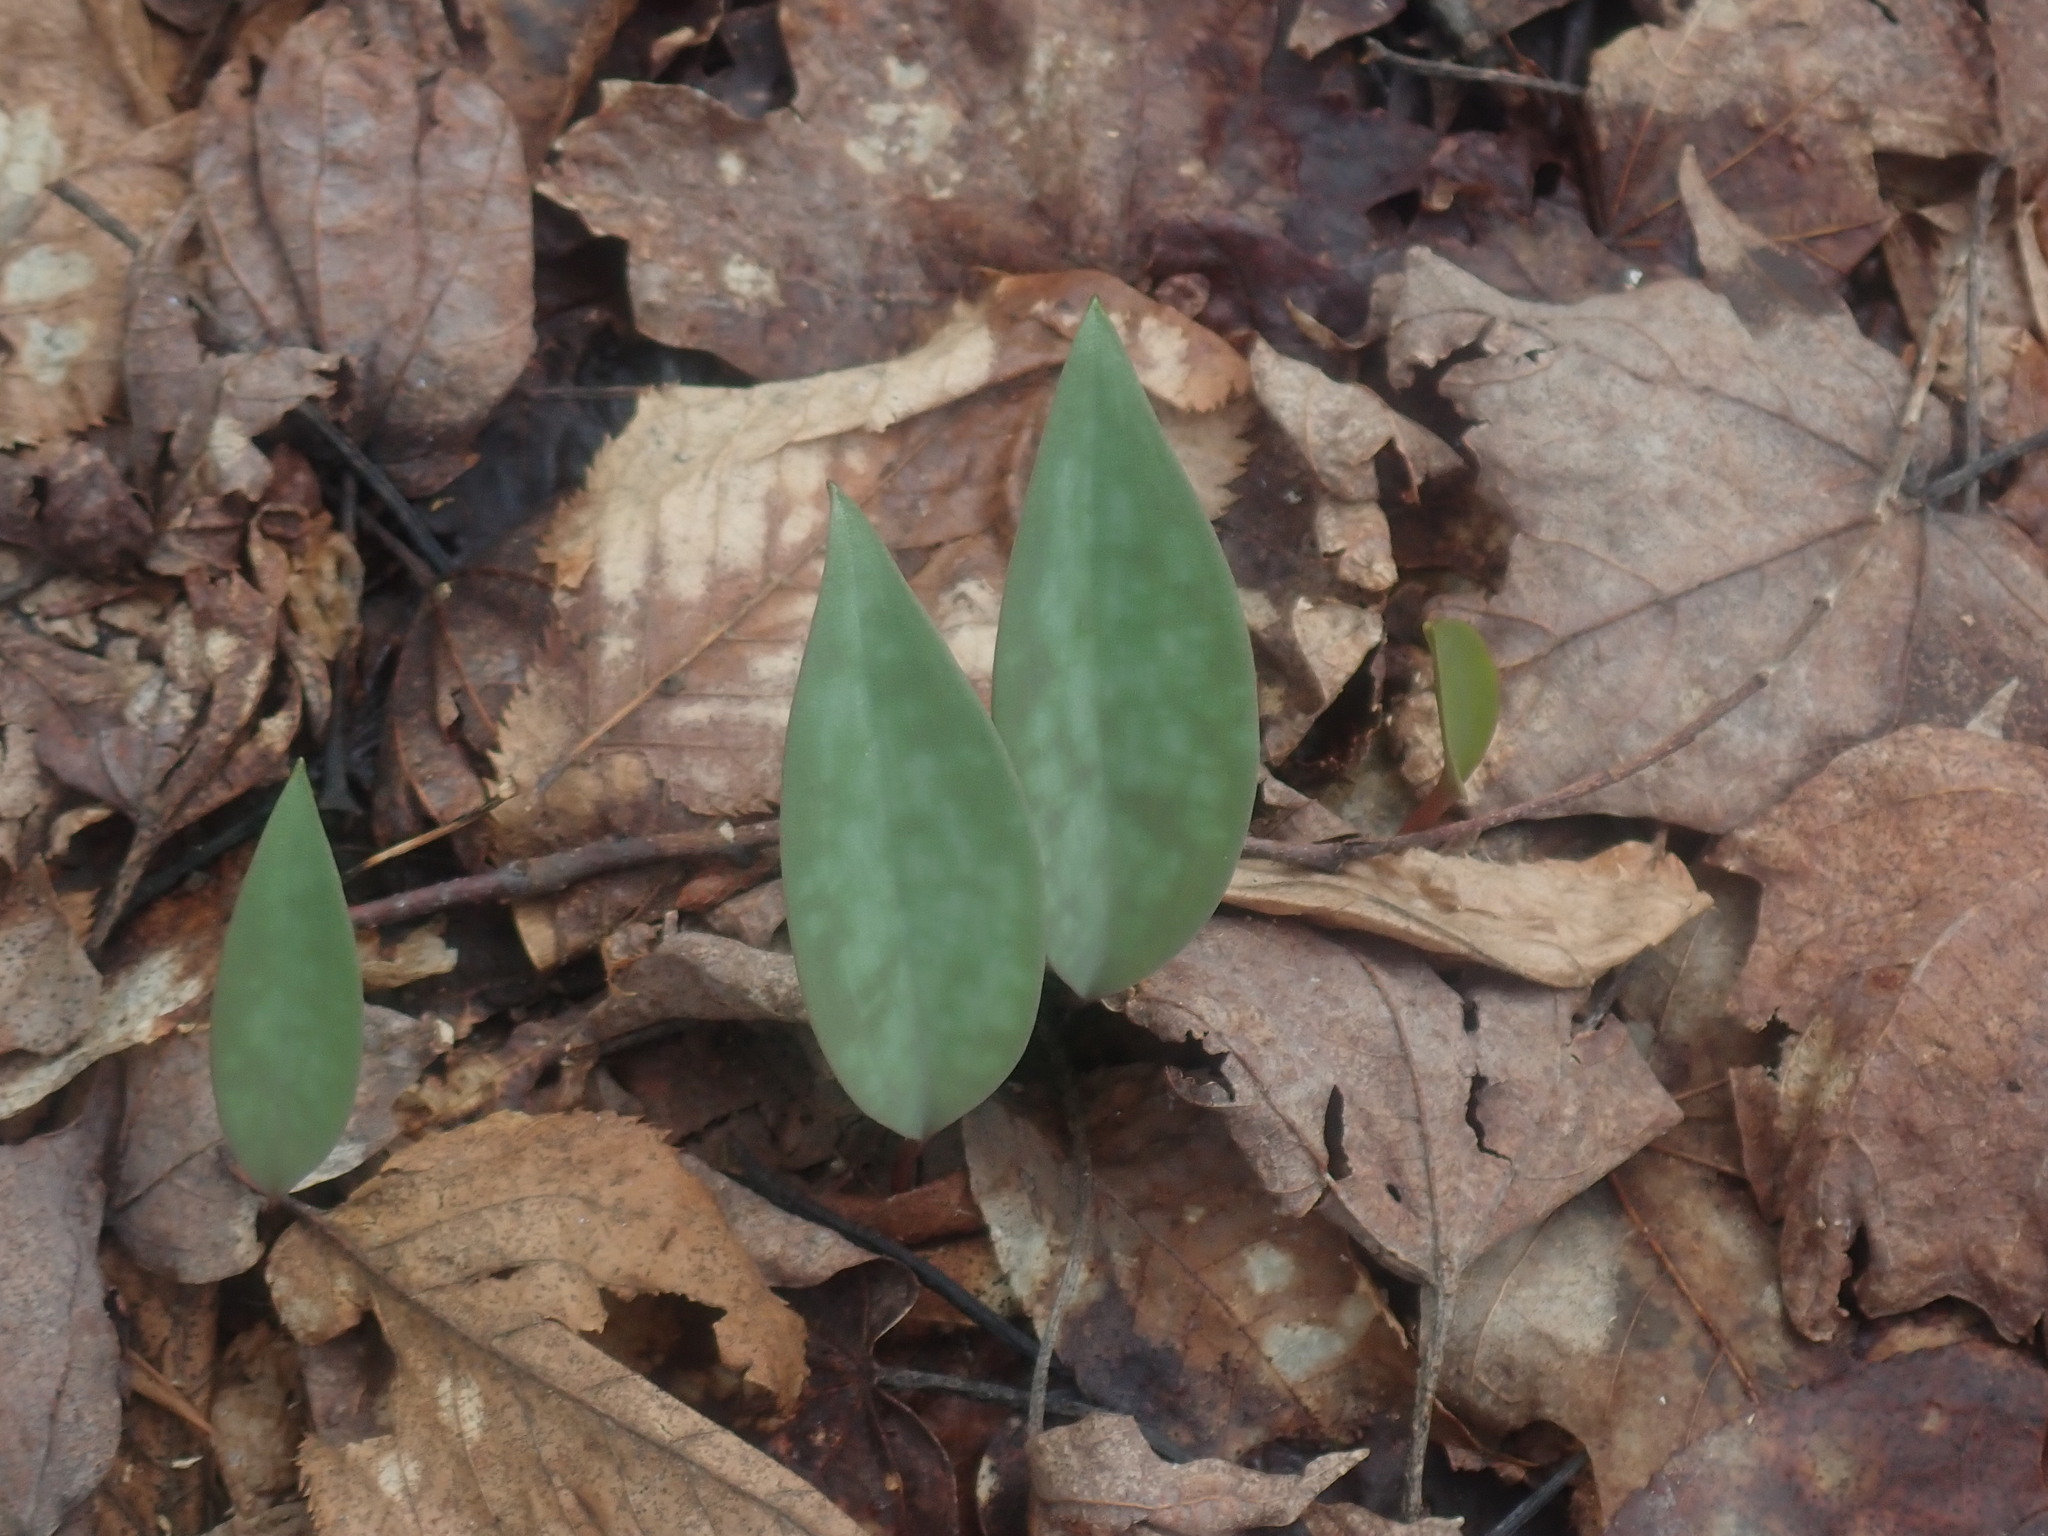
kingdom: Plantae
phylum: Tracheophyta
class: Liliopsida
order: Liliales
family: Liliaceae
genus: Erythronium
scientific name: Erythronium americanum
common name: Yellow adder's-tongue
